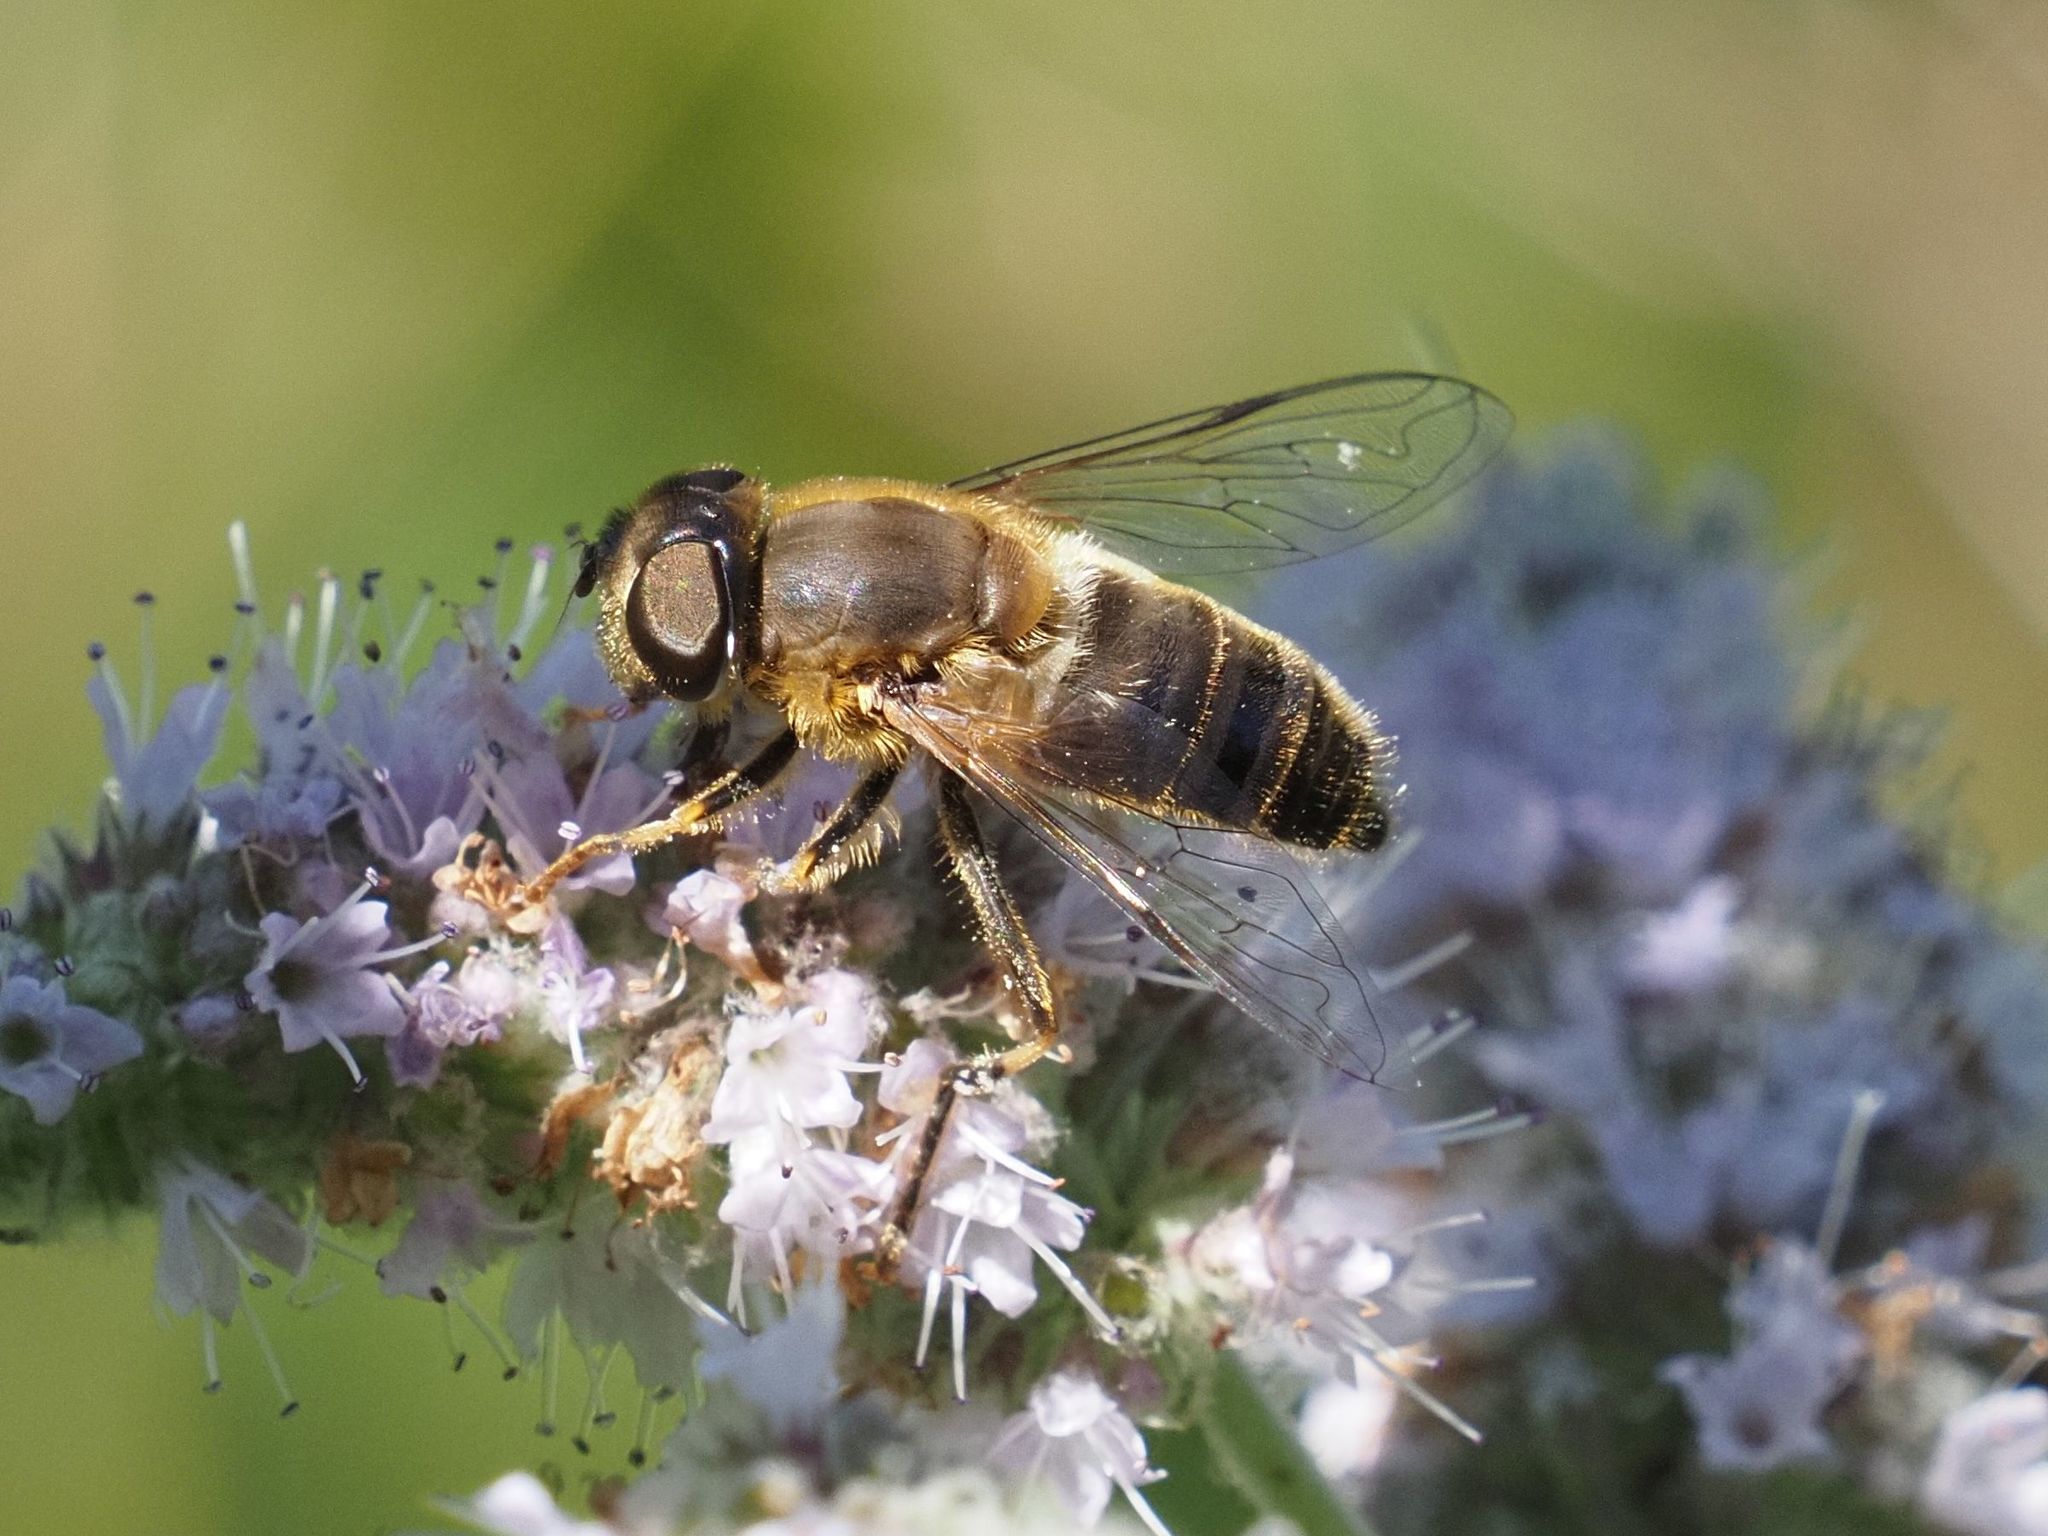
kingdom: Animalia
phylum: Arthropoda
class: Insecta
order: Diptera
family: Syrphidae
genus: Eristalis
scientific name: Eristalis pertinax
